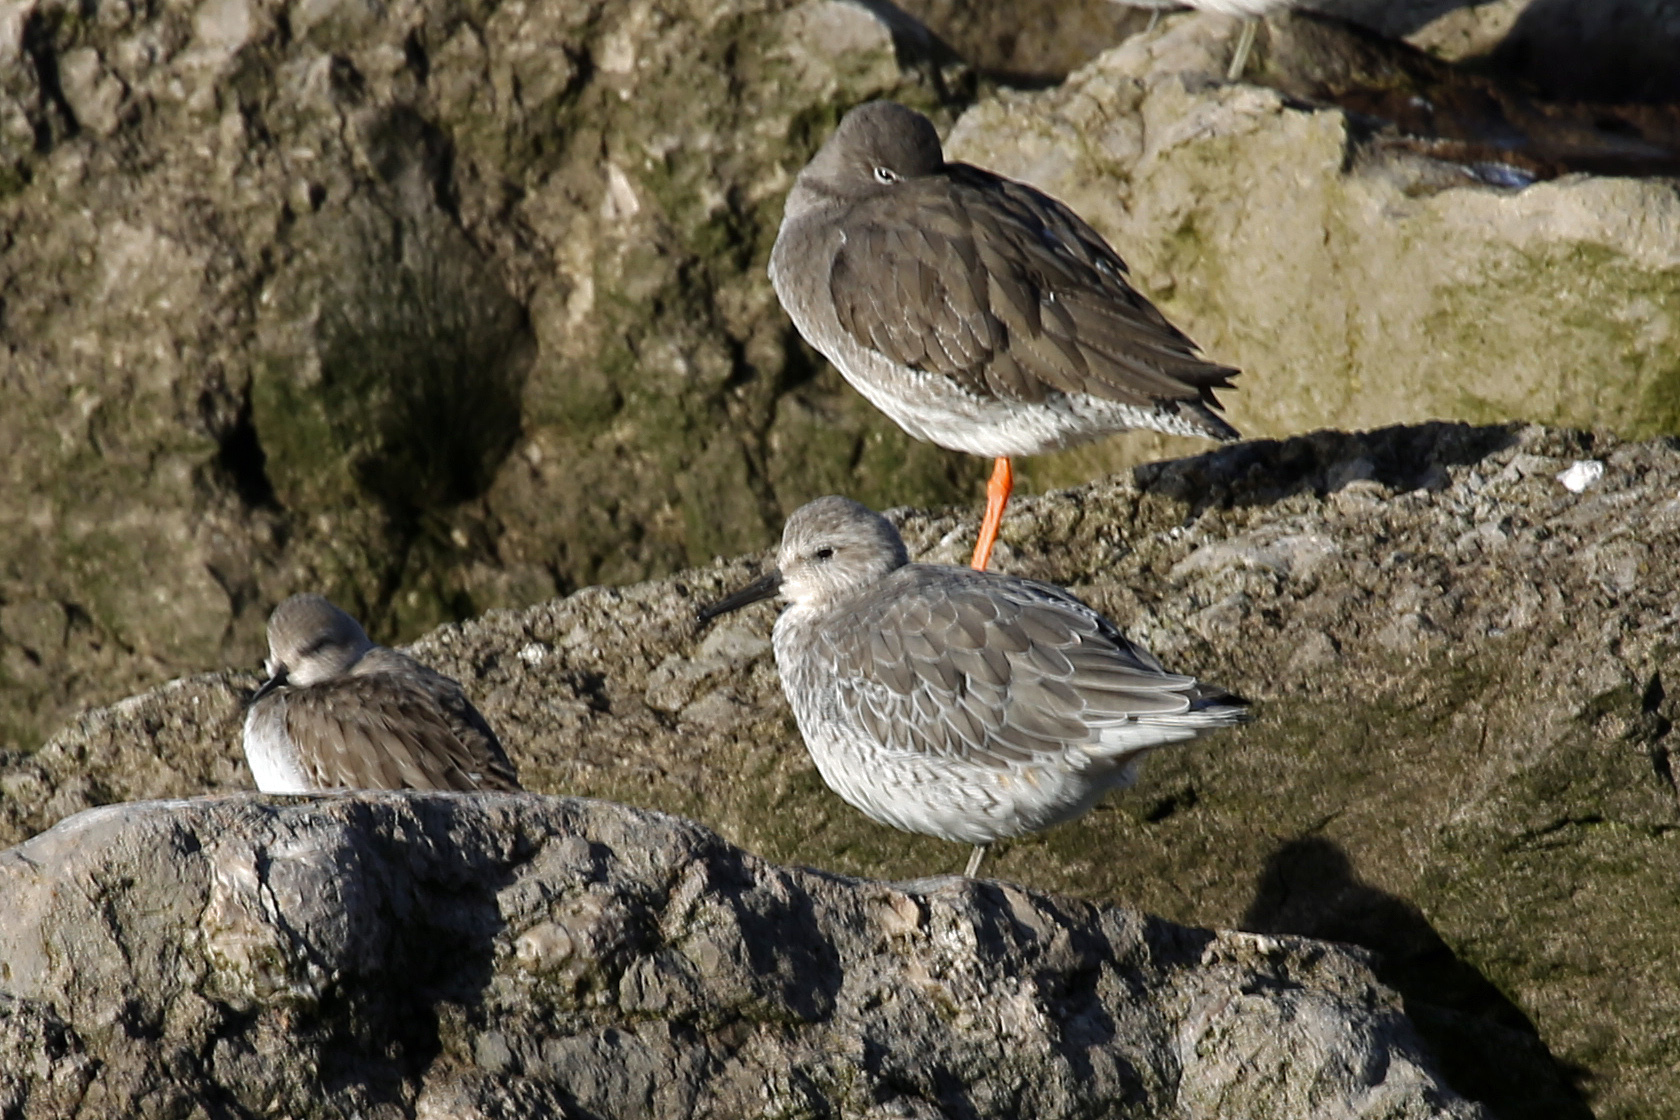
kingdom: Animalia
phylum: Chordata
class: Aves
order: Charadriiformes
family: Scolopacidae
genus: Tringa
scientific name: Tringa totanus
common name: Common redshank
